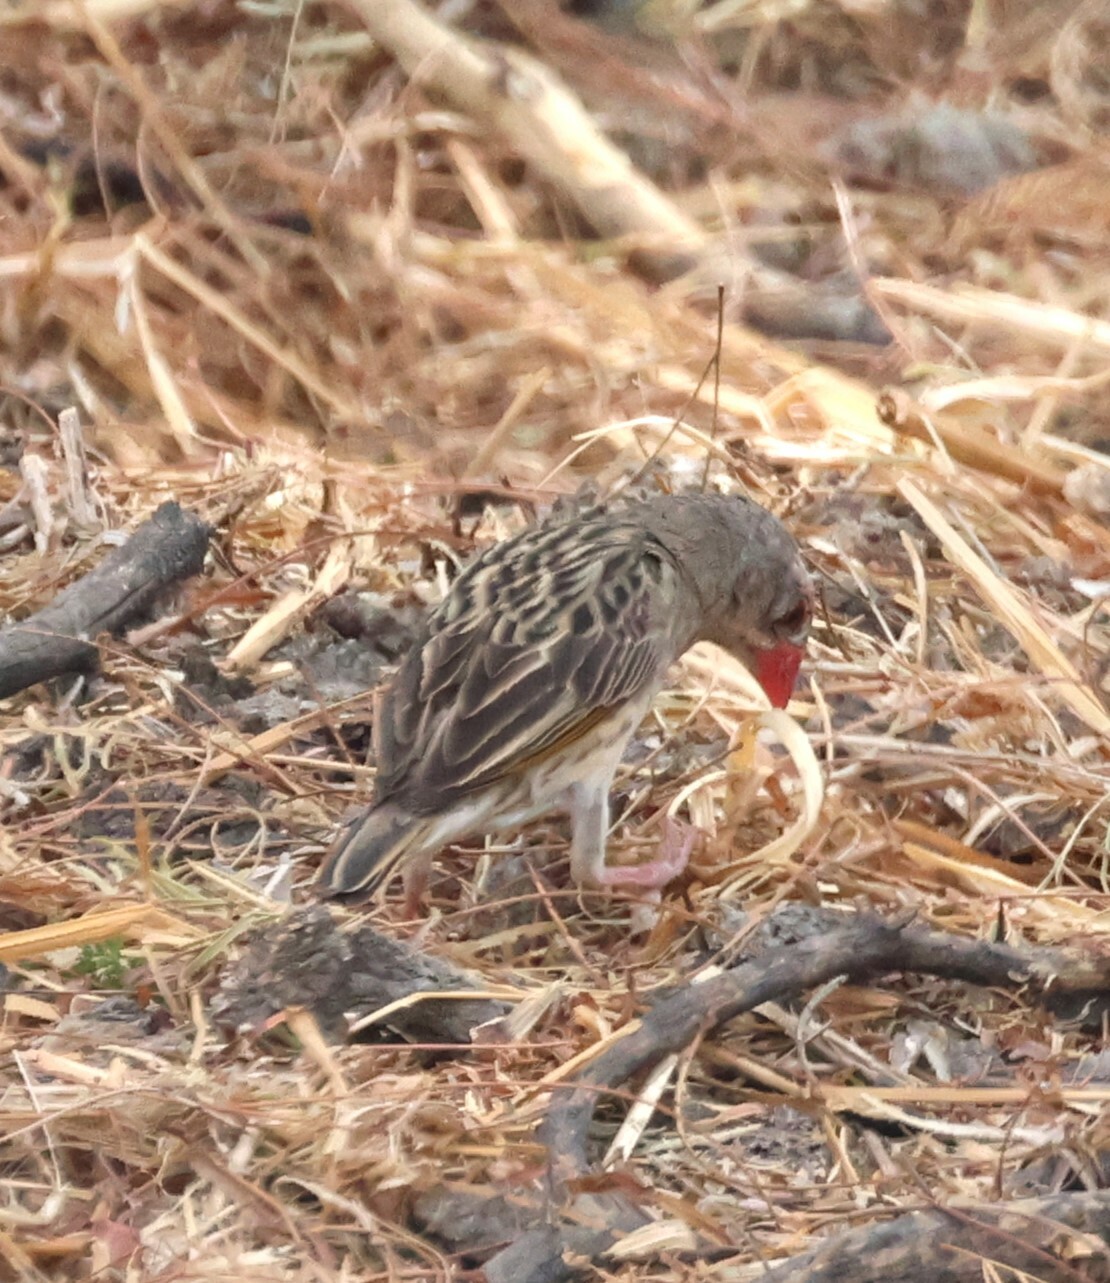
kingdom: Animalia
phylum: Chordata
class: Aves
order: Passeriformes
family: Ploceidae
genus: Quelea
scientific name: Quelea quelea
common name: Red-billed quelea
